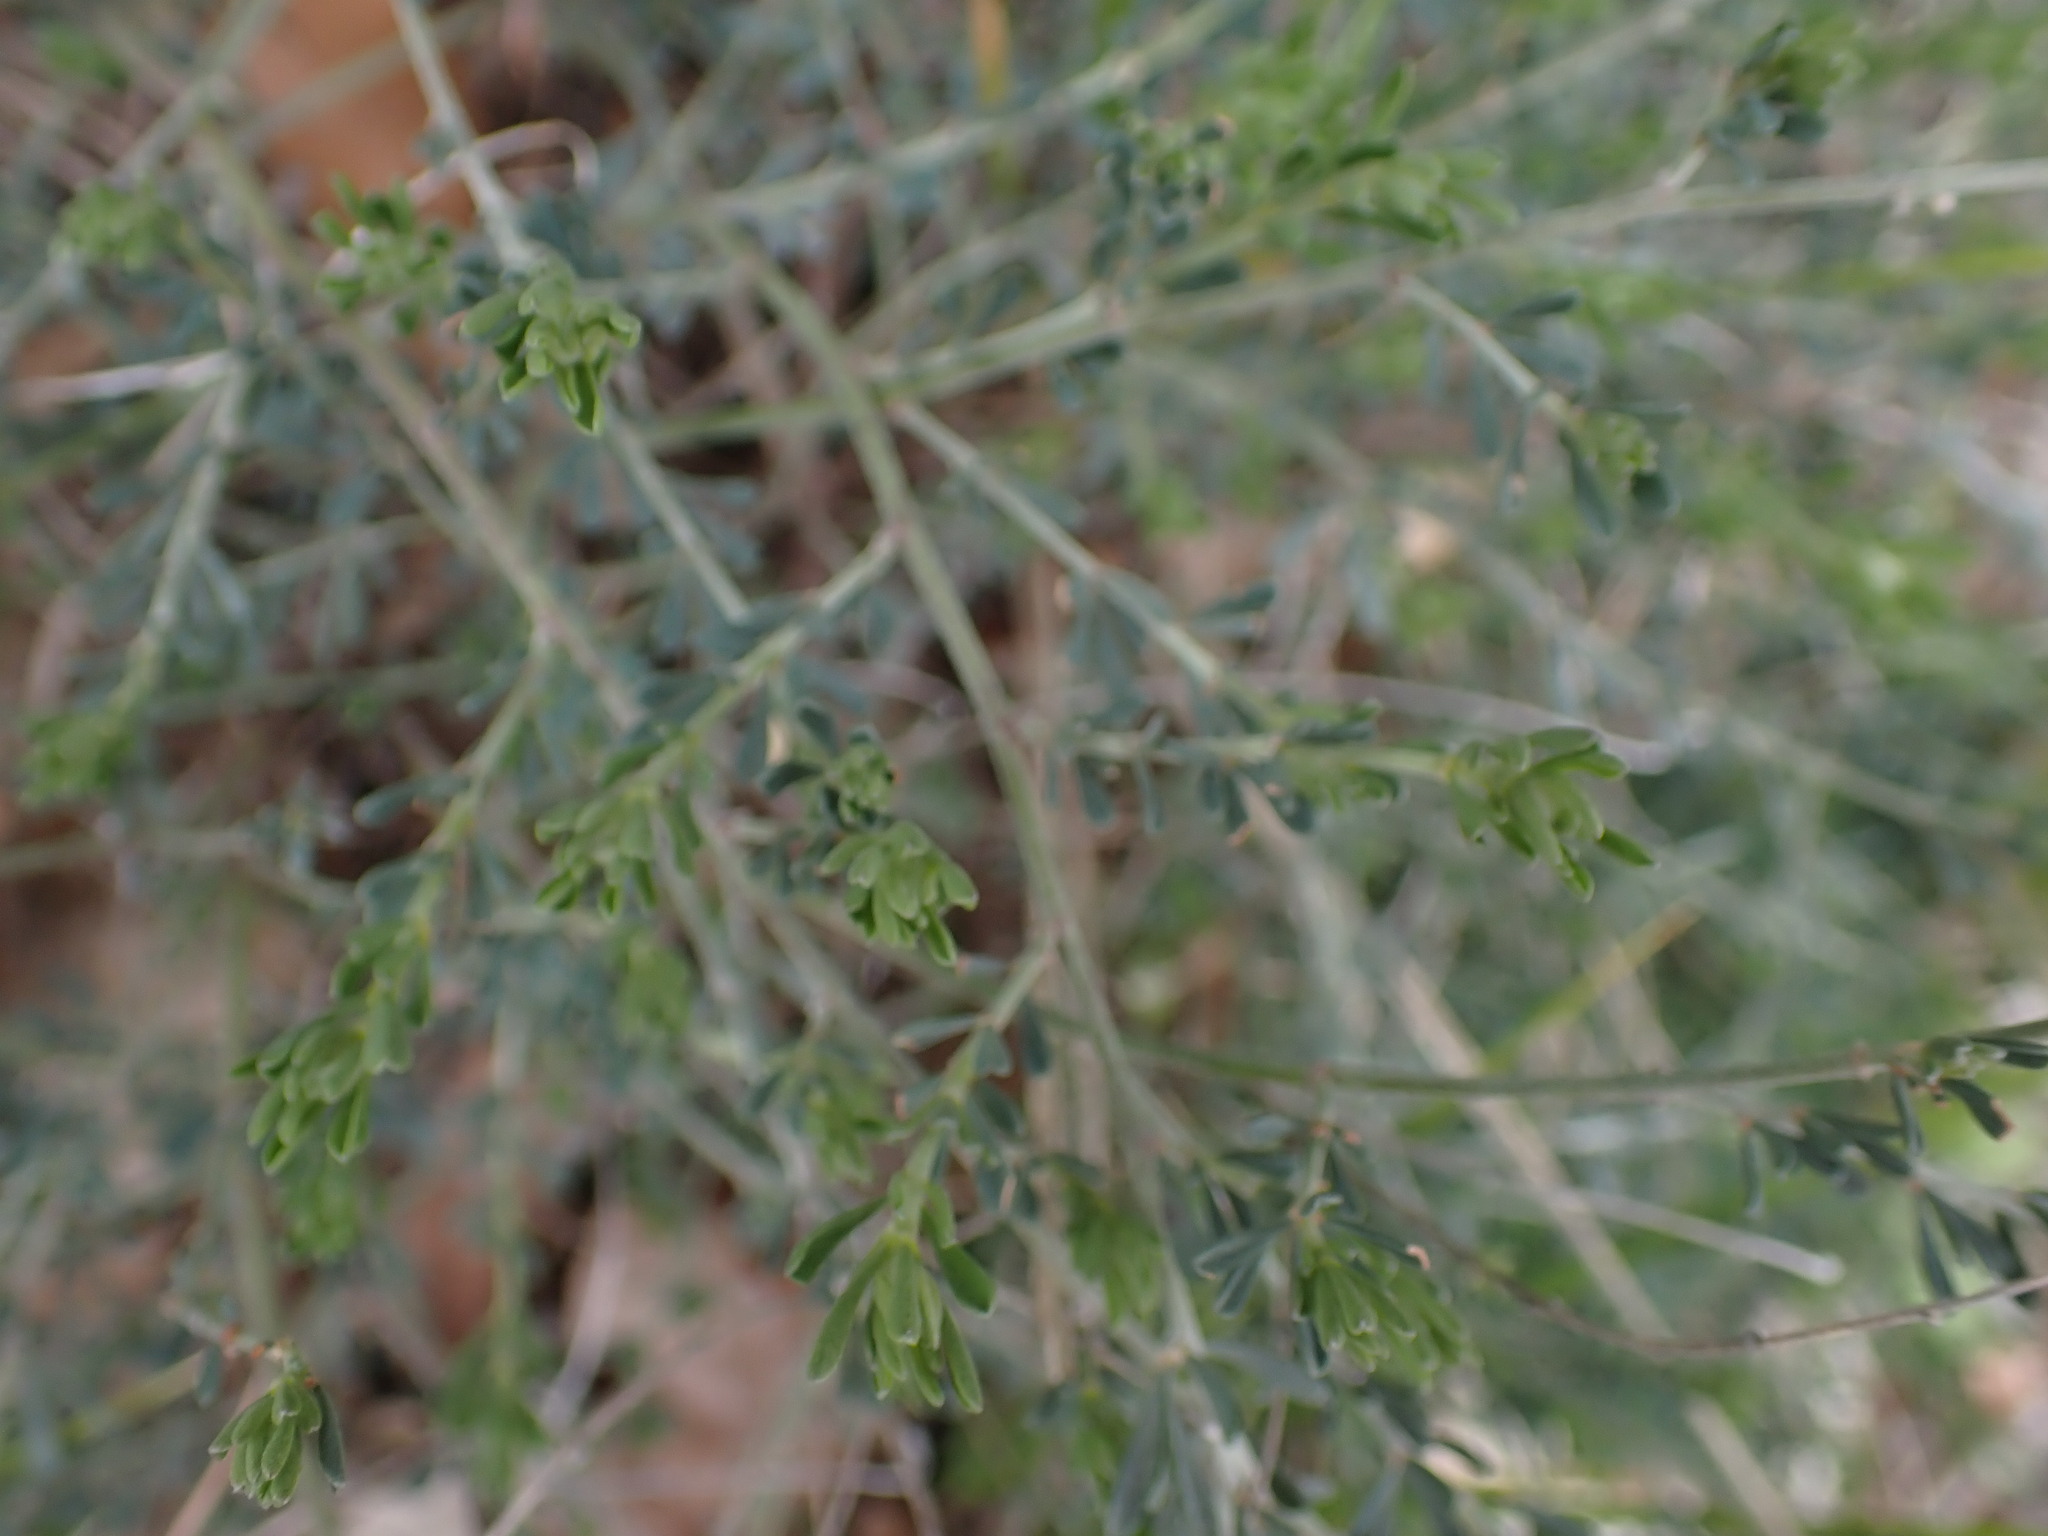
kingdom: Plantae
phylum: Tracheophyta
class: Magnoliopsida
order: Fabales
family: Fabaceae
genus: Lotus
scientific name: Lotus dorycnium
